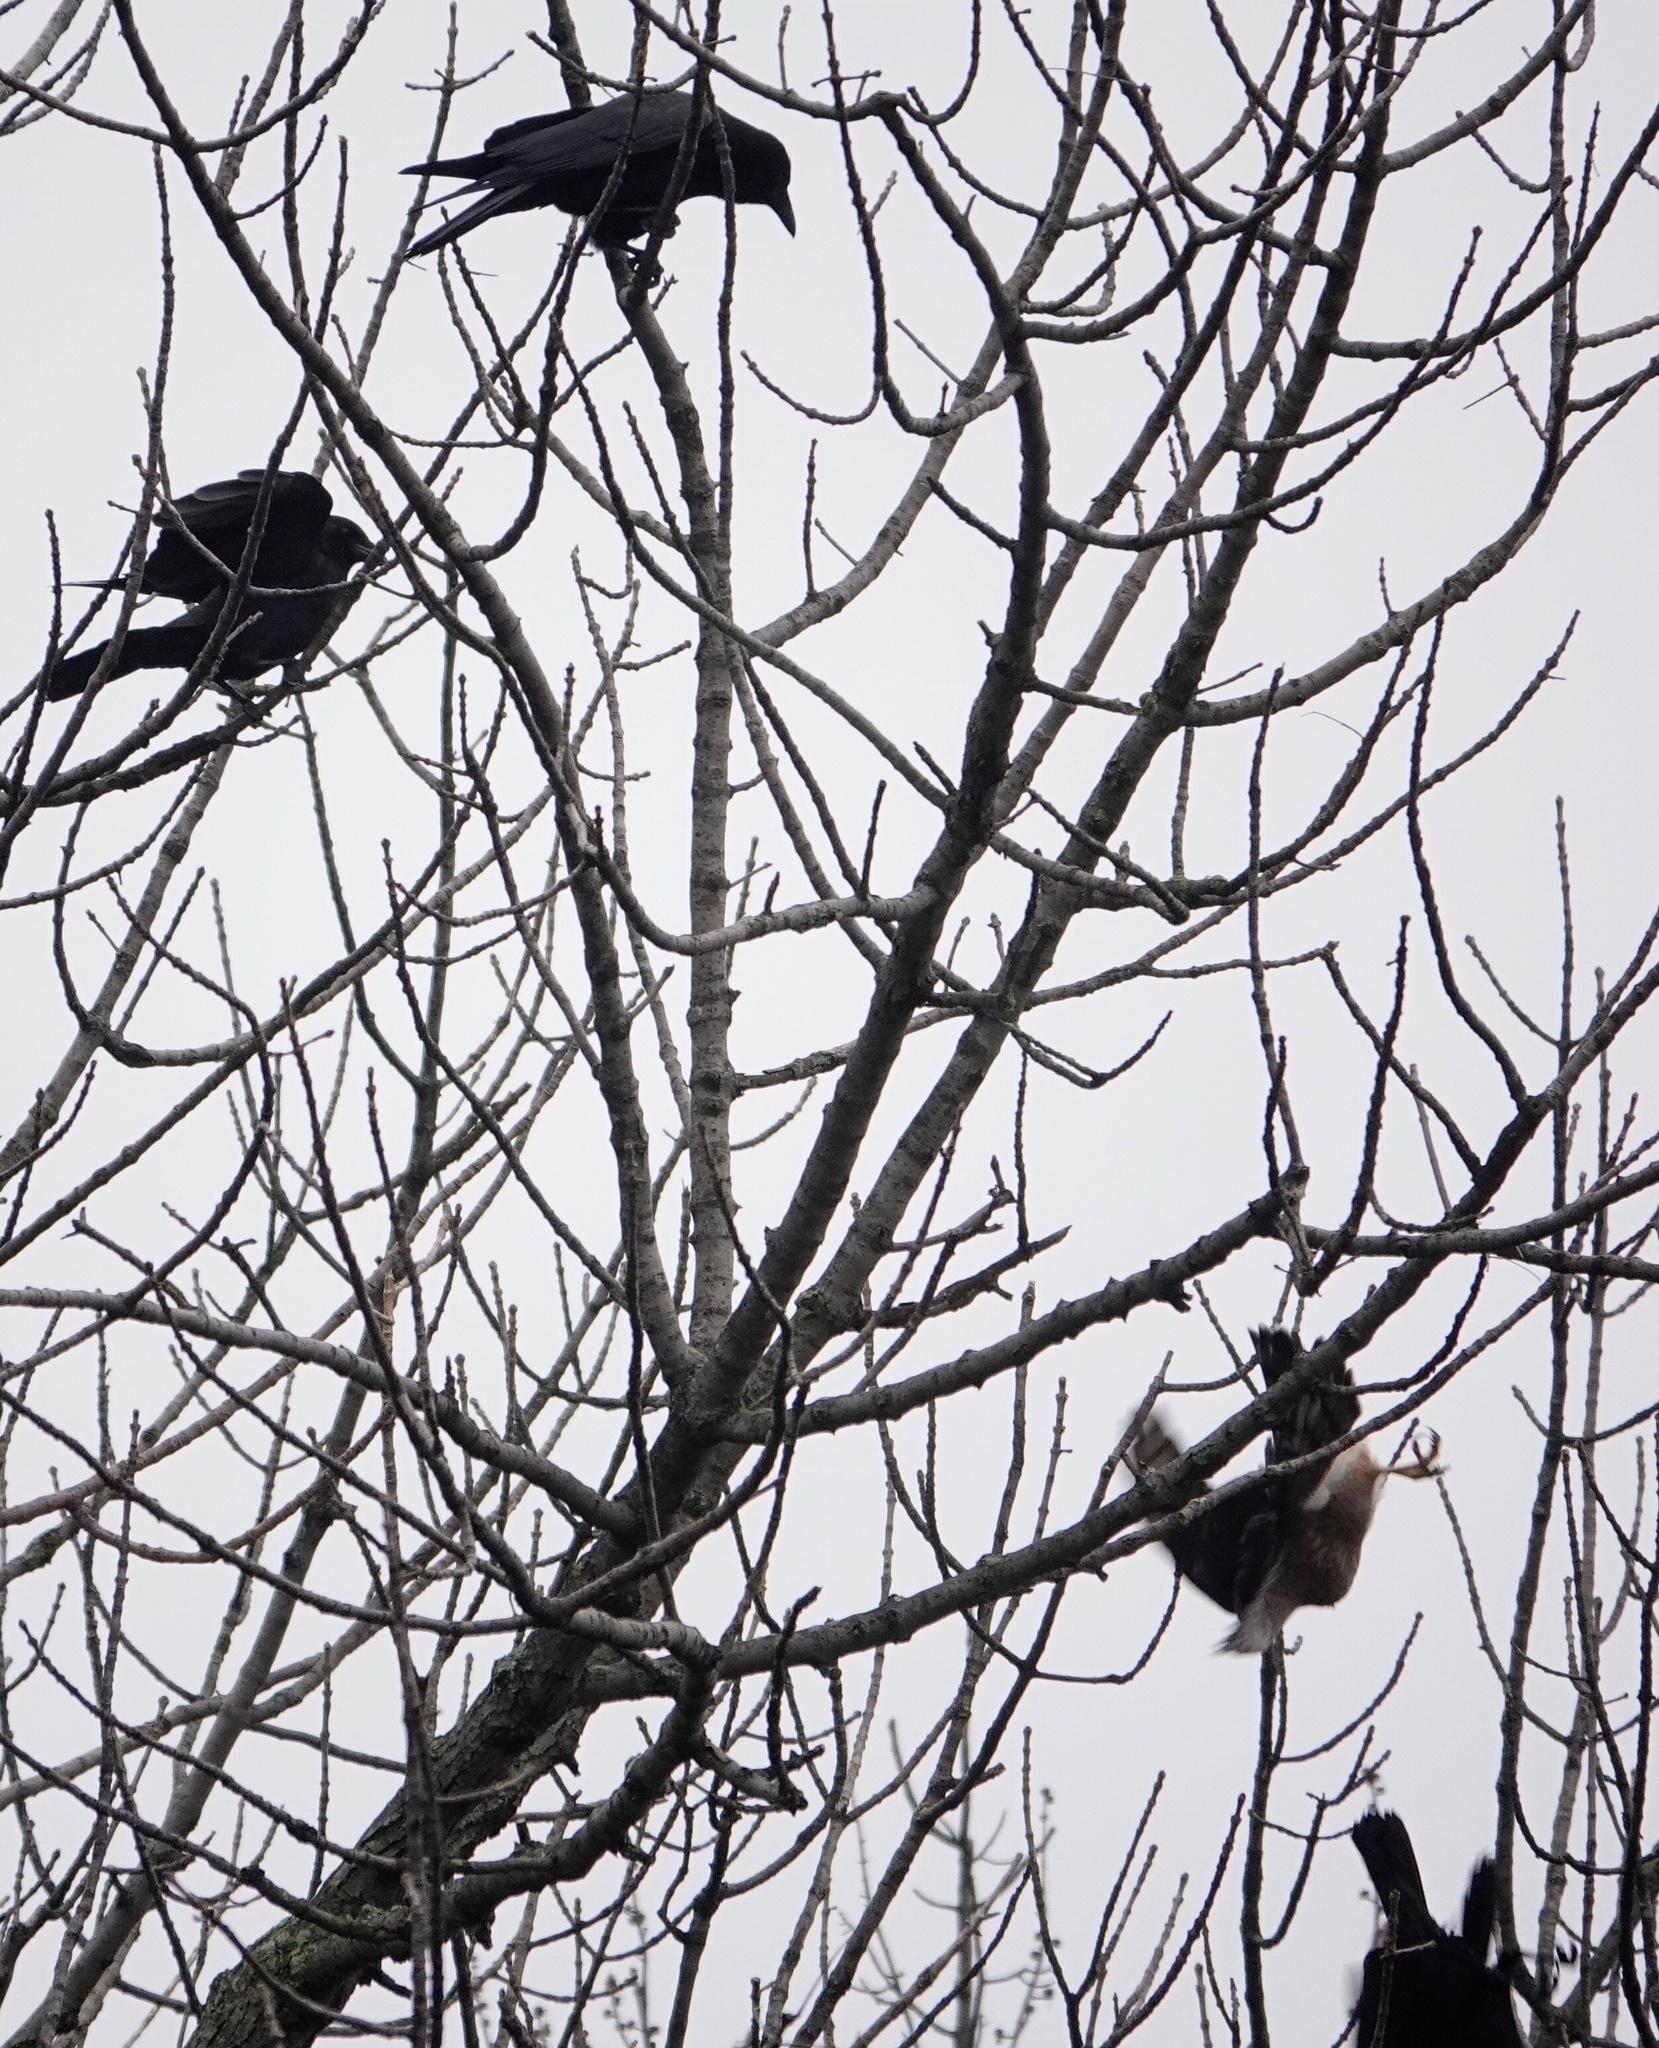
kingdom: Animalia
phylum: Chordata
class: Aves
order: Accipitriformes
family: Accipitridae
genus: Accipiter
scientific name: Accipiter cooperii
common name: Cooper's hawk
